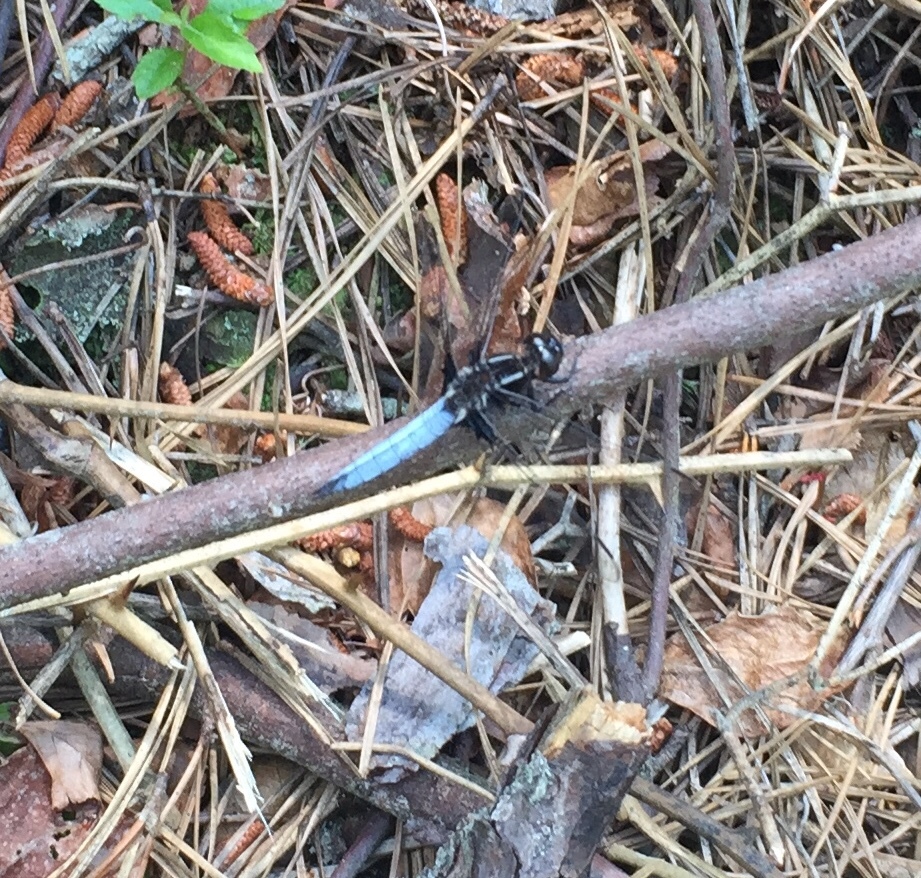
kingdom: Animalia
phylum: Arthropoda
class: Insecta
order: Odonata
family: Libellulidae
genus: Ladona
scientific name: Ladona exusta
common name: Libellule embrasée
